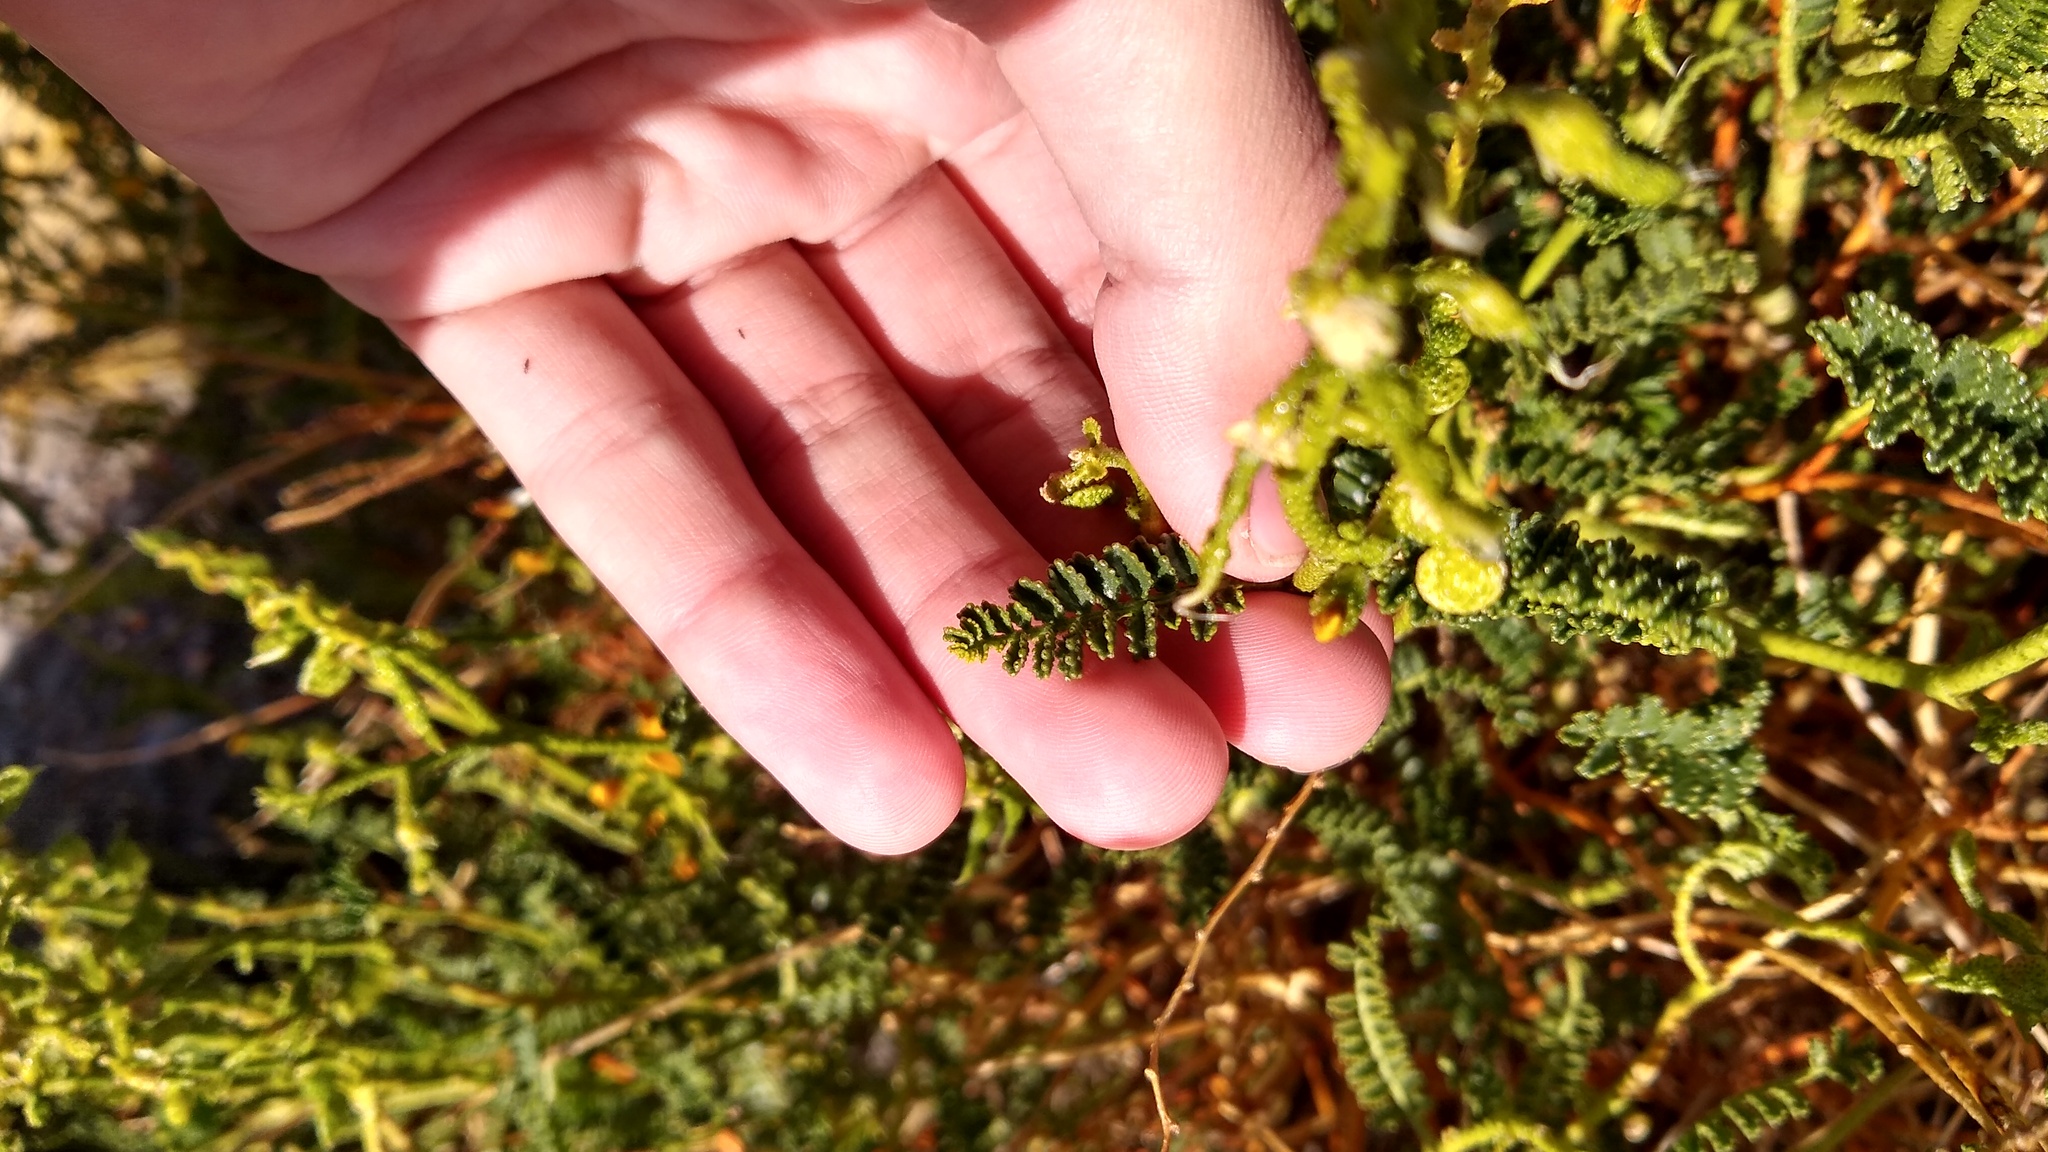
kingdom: Plantae
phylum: Tracheophyta
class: Magnoliopsida
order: Fabales
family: Fabaceae
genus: Adesmia
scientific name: Adesmia boronioides
